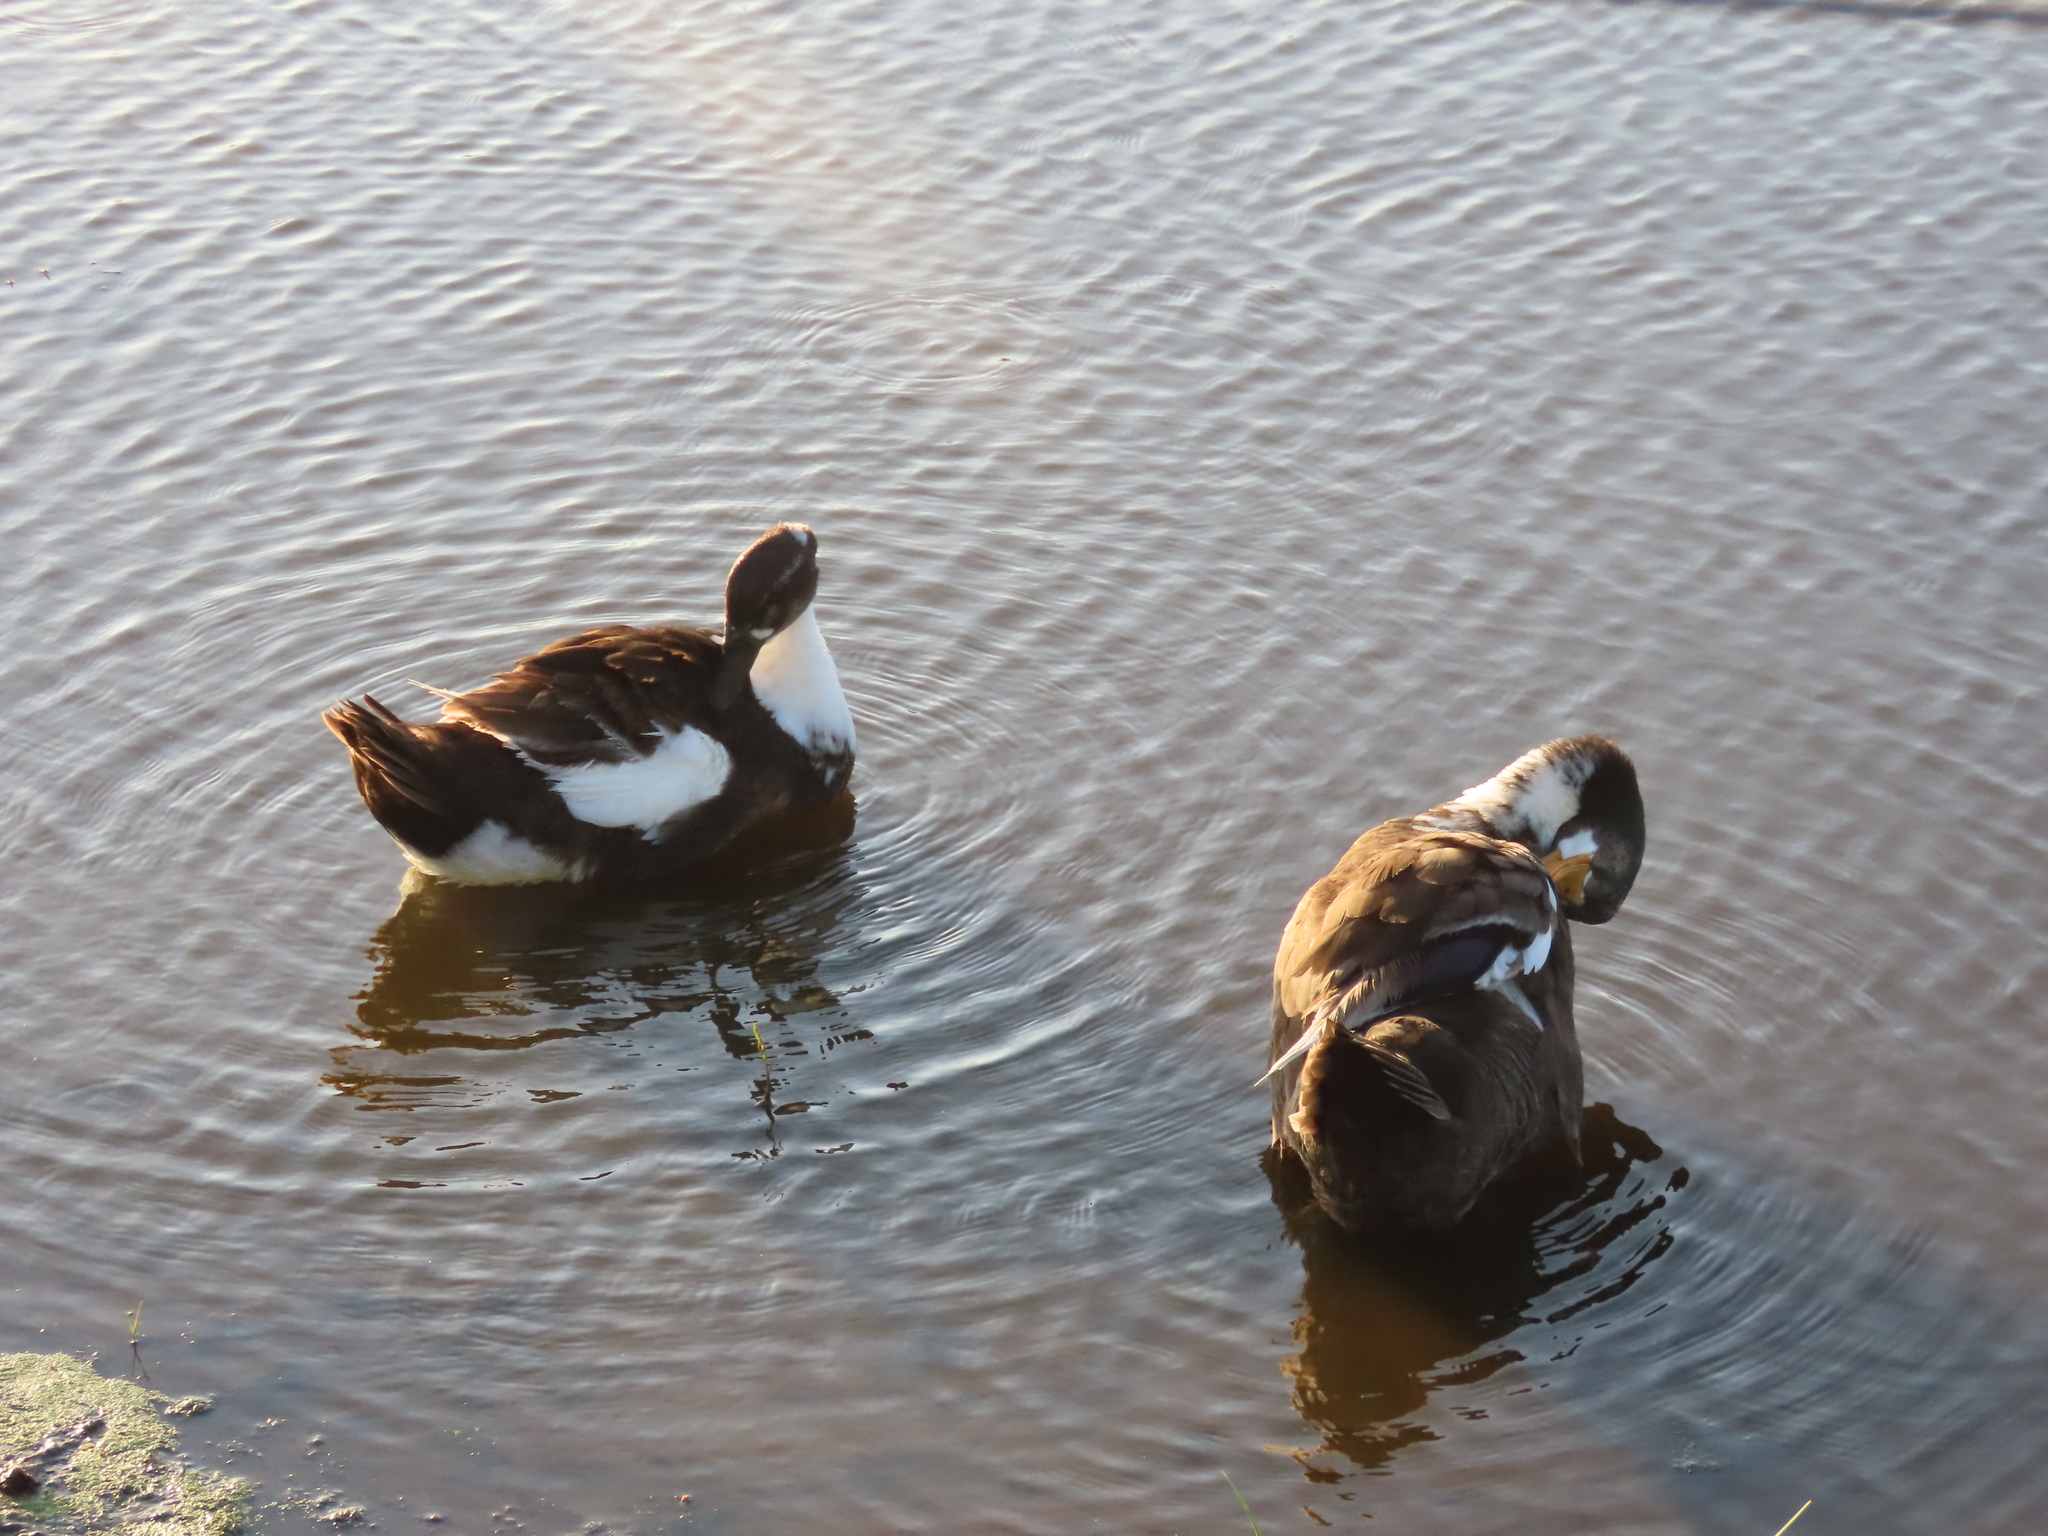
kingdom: Animalia
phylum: Chordata
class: Aves
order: Anseriformes
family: Anatidae
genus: Anas
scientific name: Anas platyrhynchos
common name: Mallard
